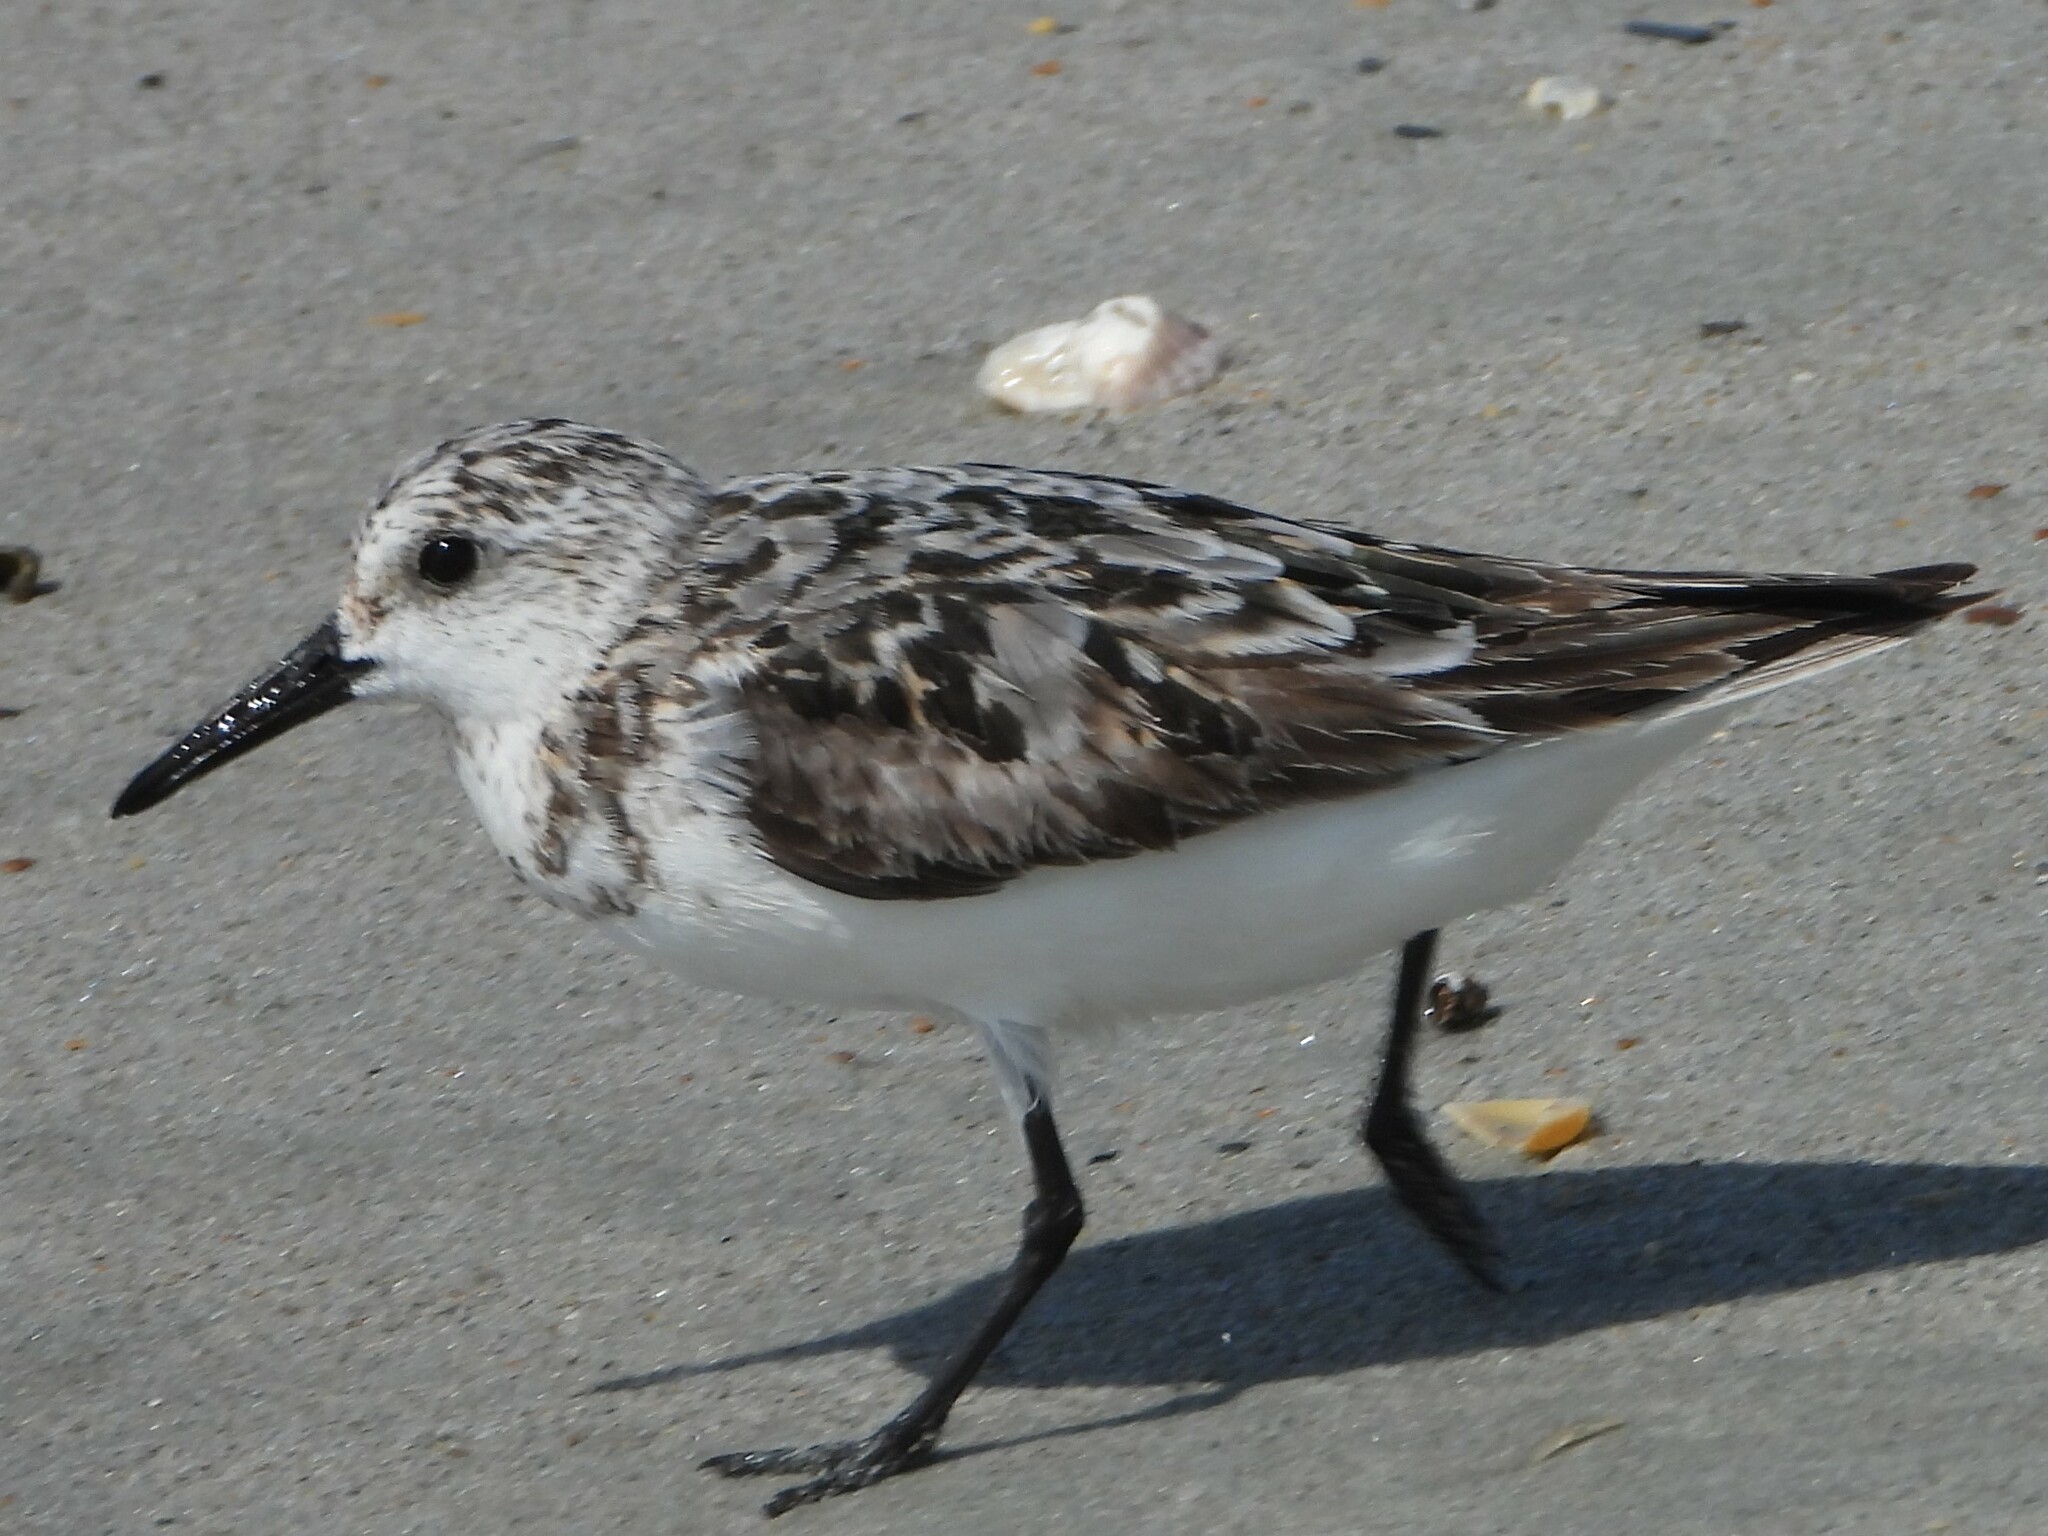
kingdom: Animalia
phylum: Chordata
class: Aves
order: Charadriiformes
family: Scolopacidae
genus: Calidris
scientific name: Calidris alba
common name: Sanderling
